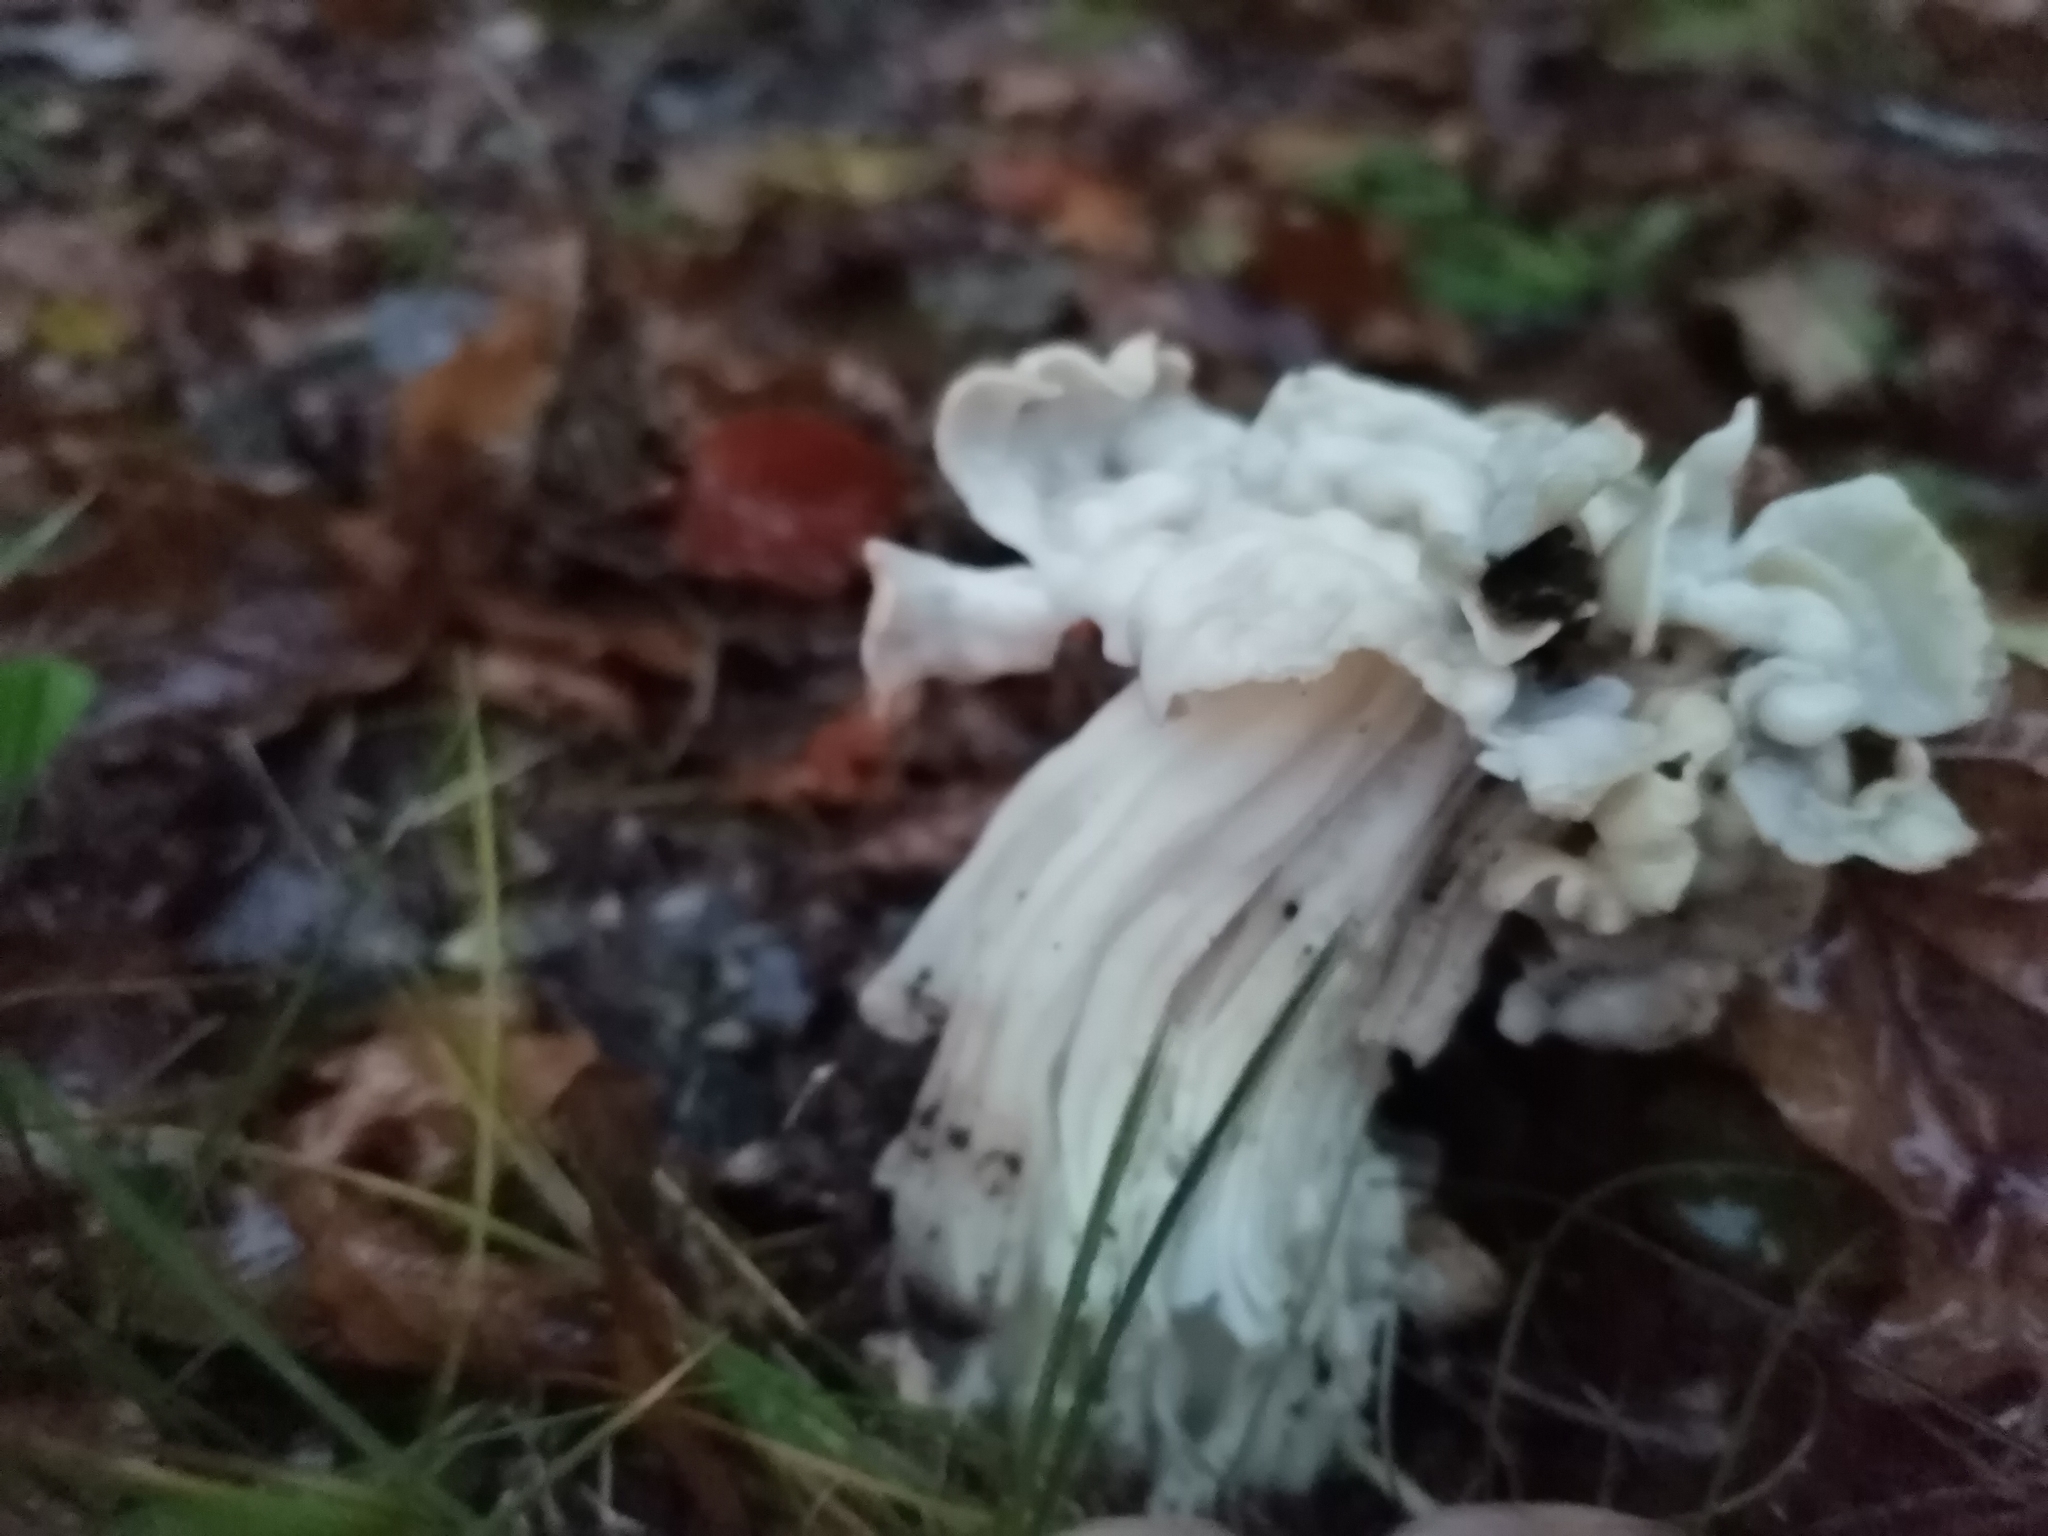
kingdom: Fungi
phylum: Ascomycota
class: Pezizomycetes
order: Pezizales
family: Helvellaceae
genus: Helvella
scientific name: Helvella crispa
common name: White saddle
